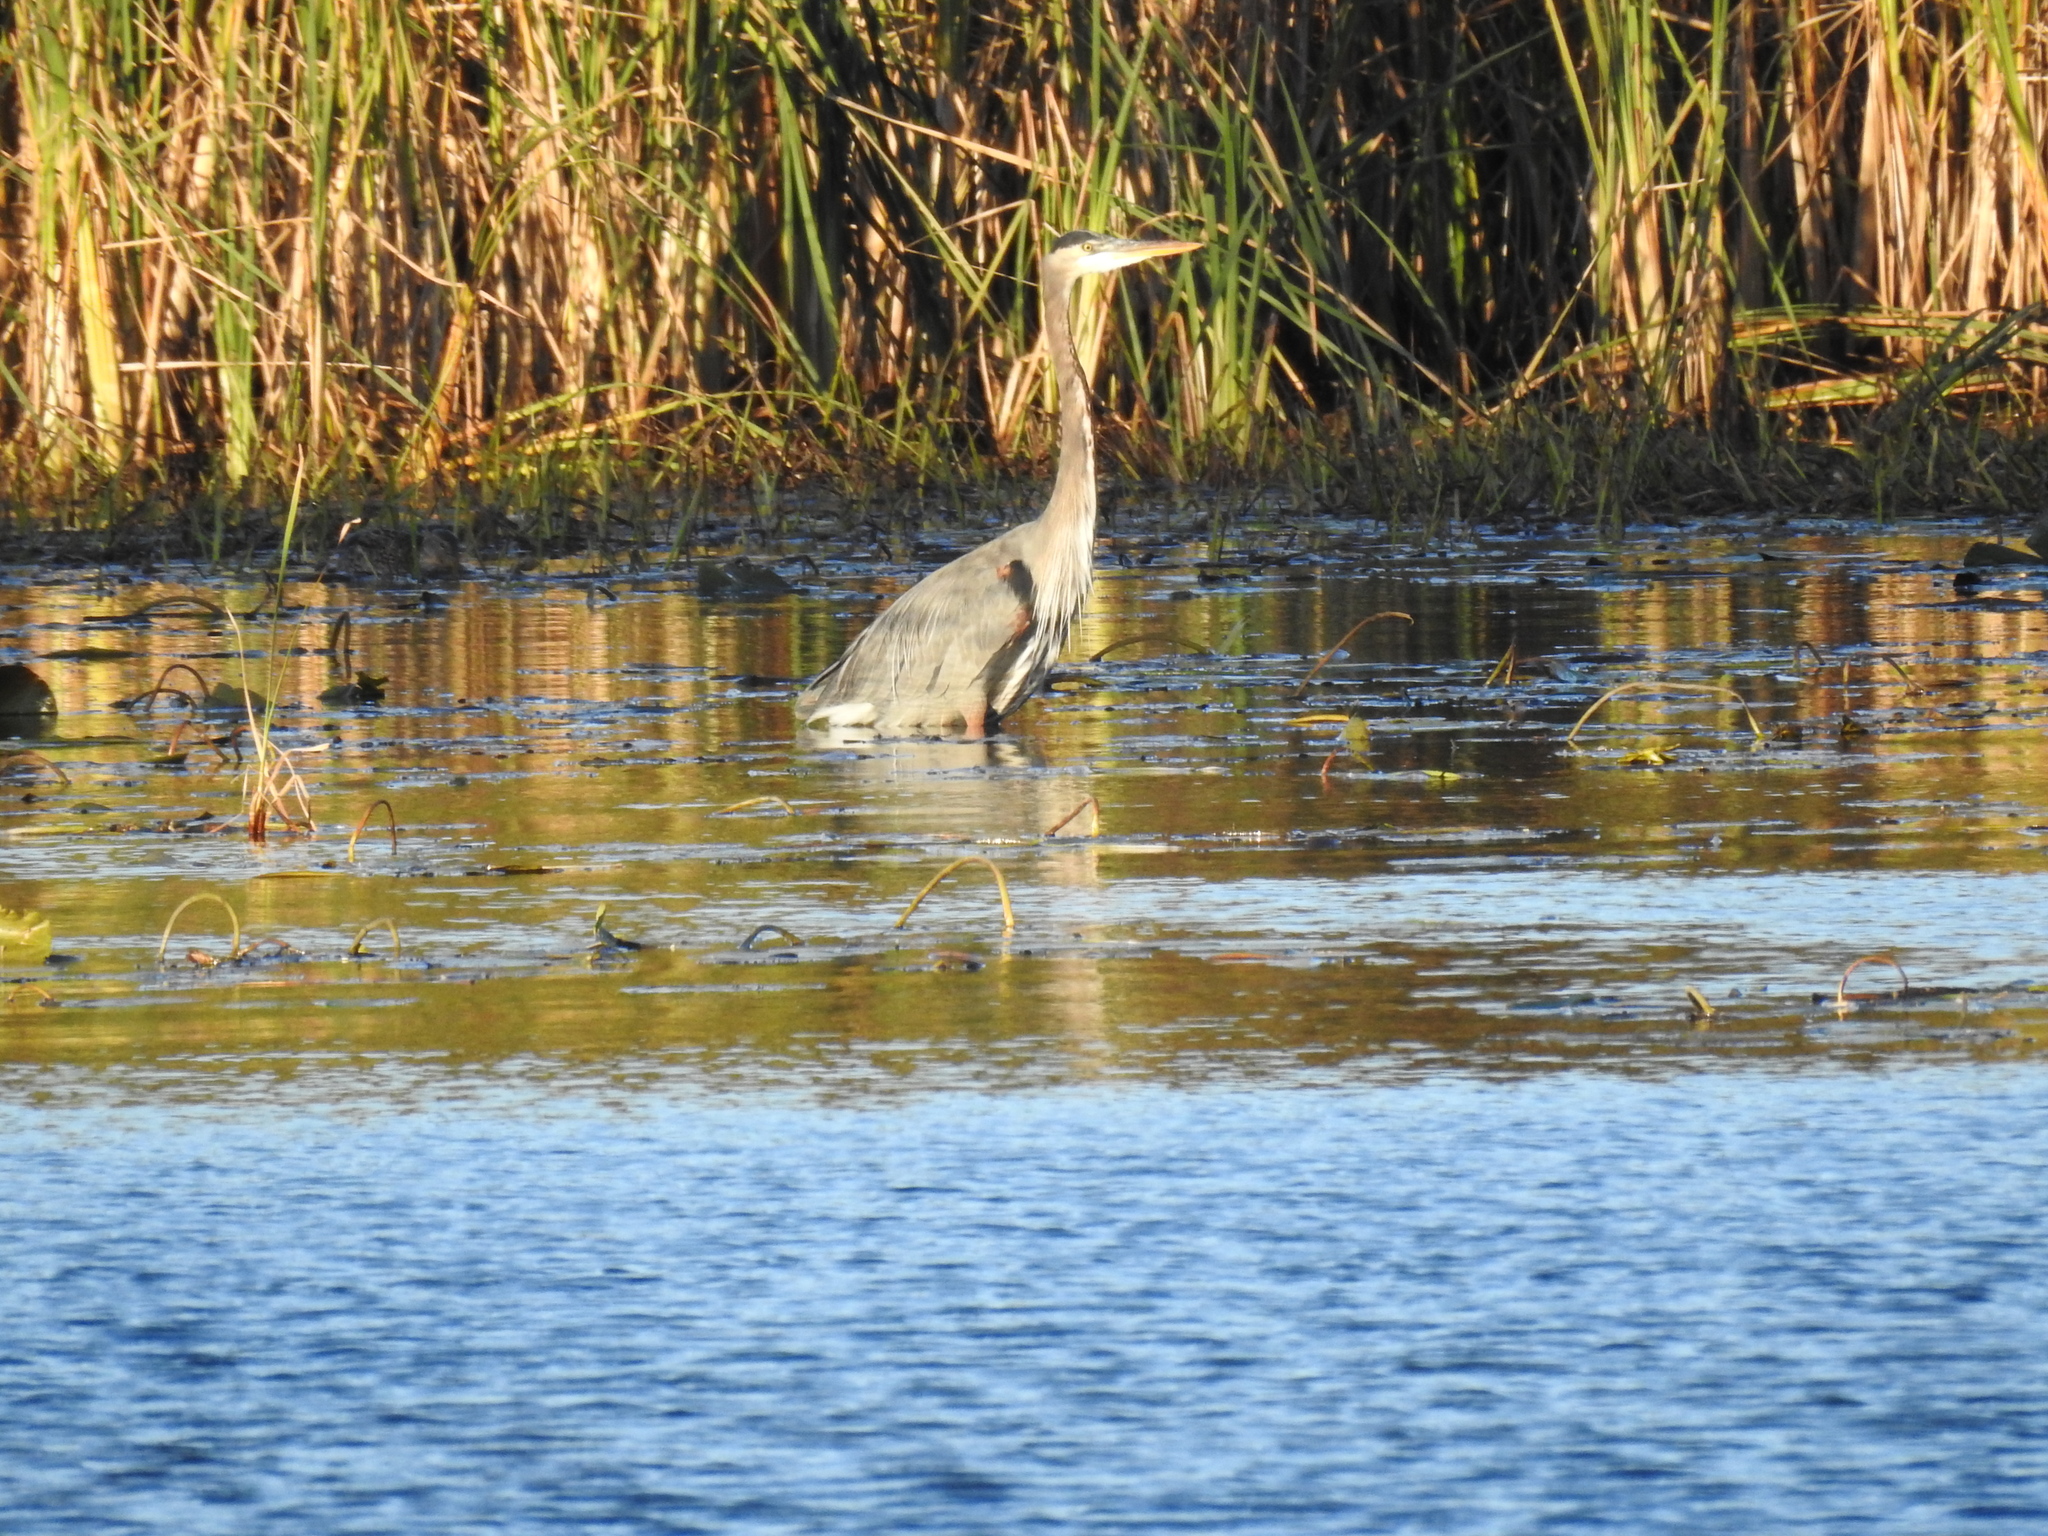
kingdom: Animalia
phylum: Chordata
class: Aves
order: Pelecaniformes
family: Ardeidae
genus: Ardea
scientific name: Ardea herodias
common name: Great blue heron
